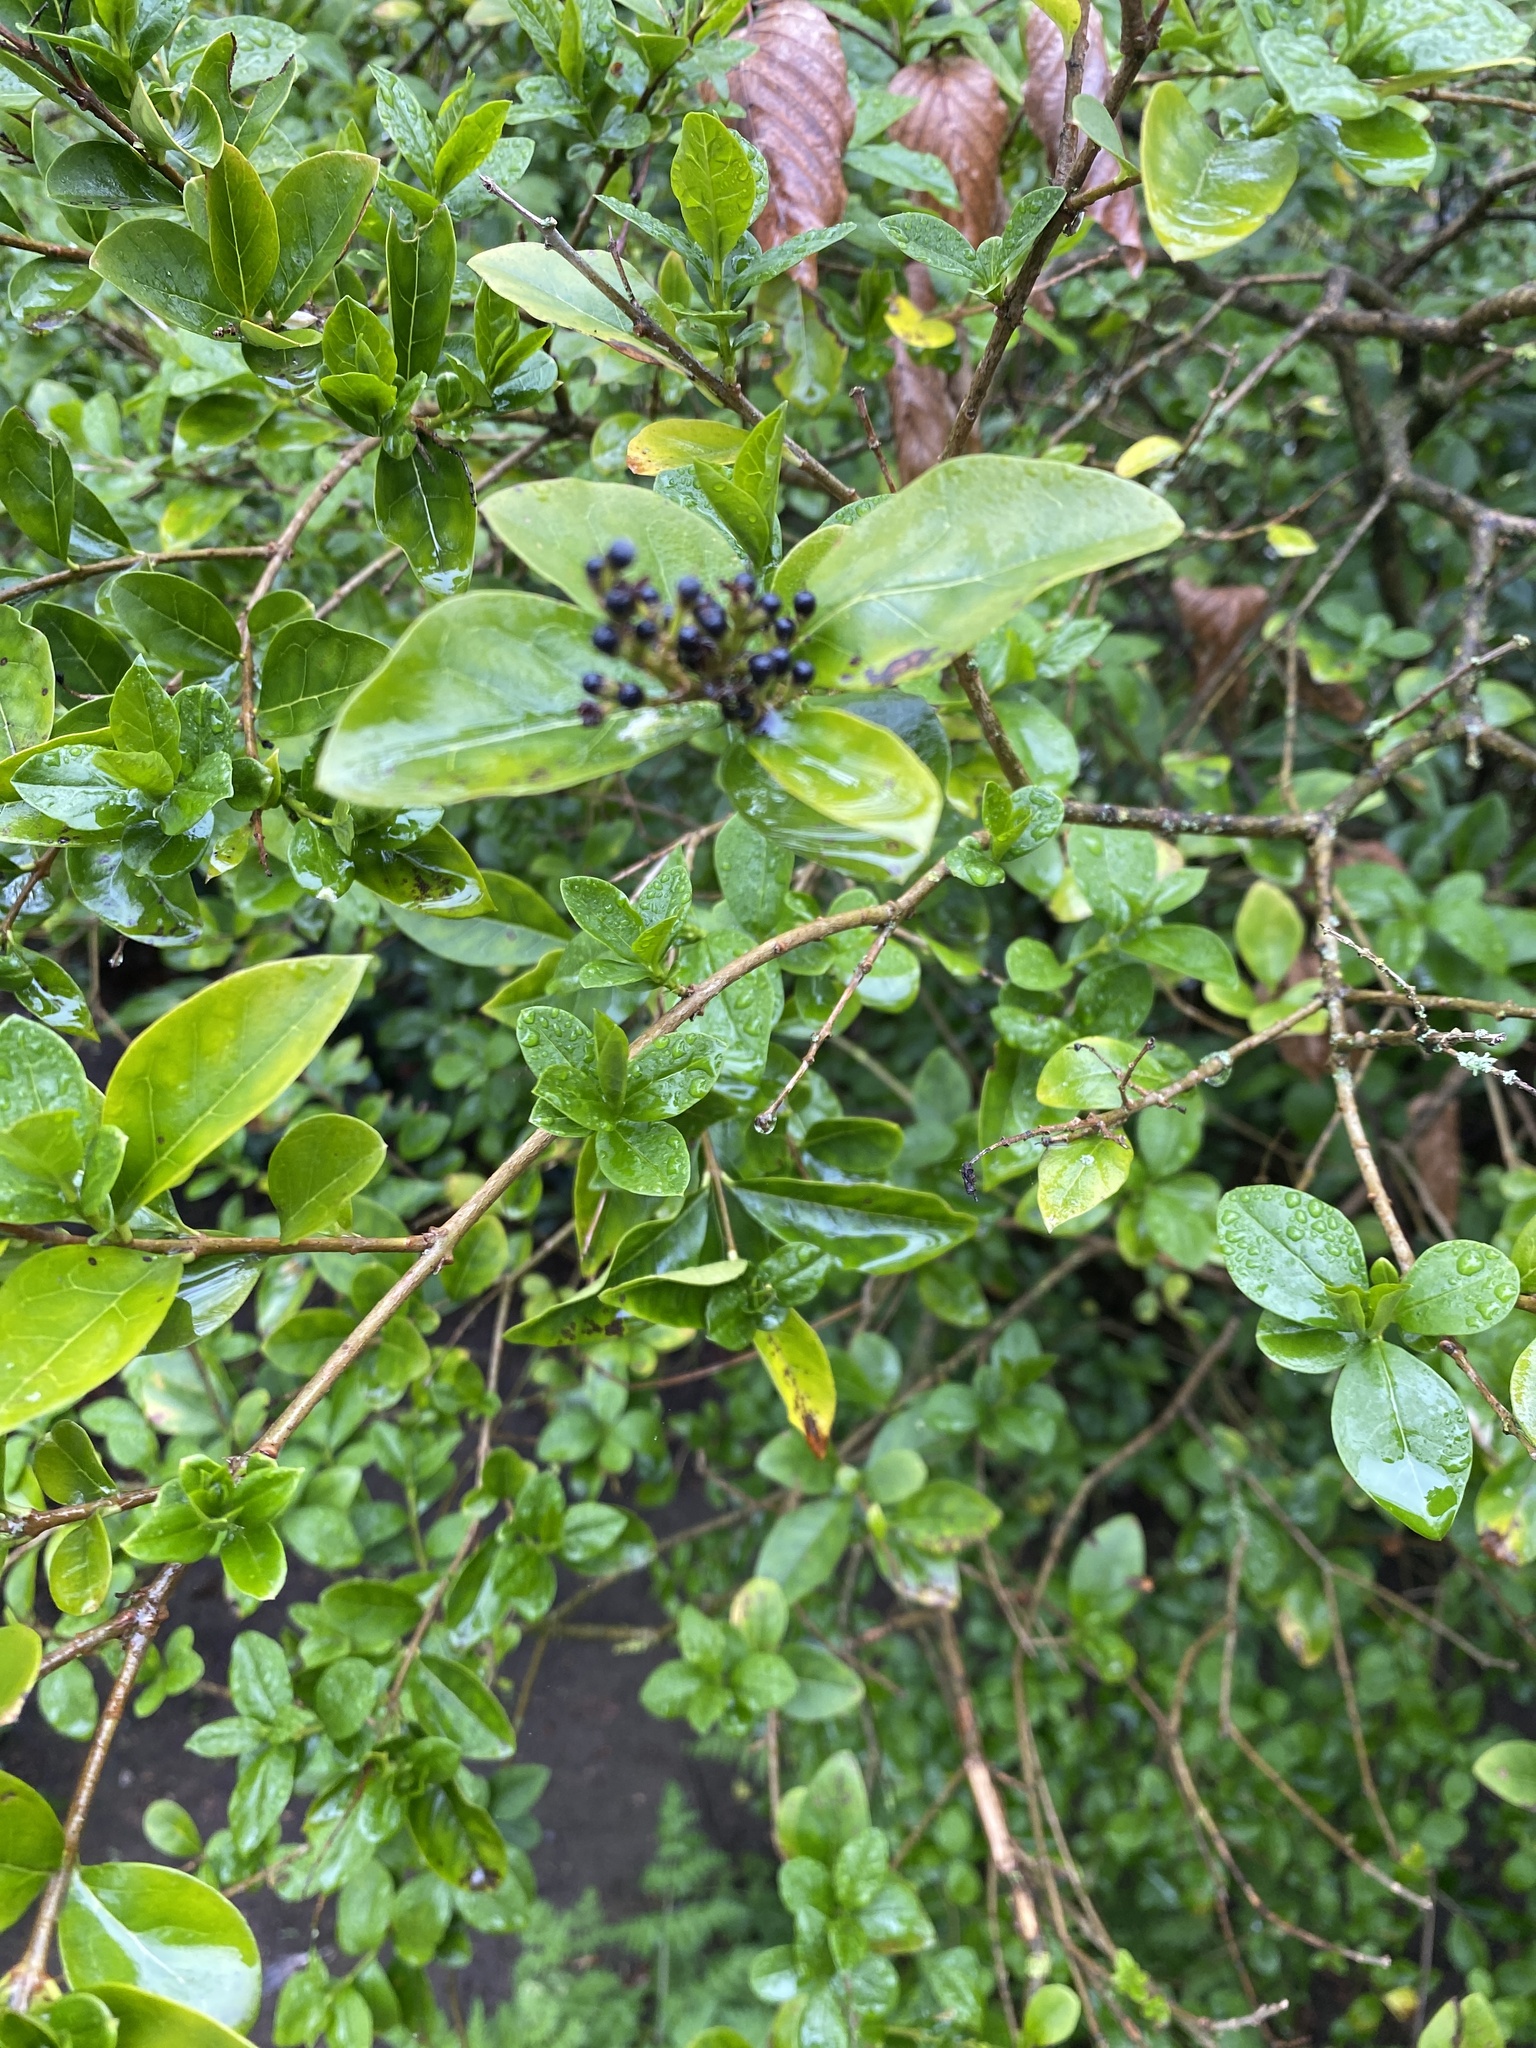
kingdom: Plantae
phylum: Tracheophyta
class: Magnoliopsida
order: Lamiales
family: Oleaceae
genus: Ligustrum
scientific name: Ligustrum ovalifolium
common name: California privet
